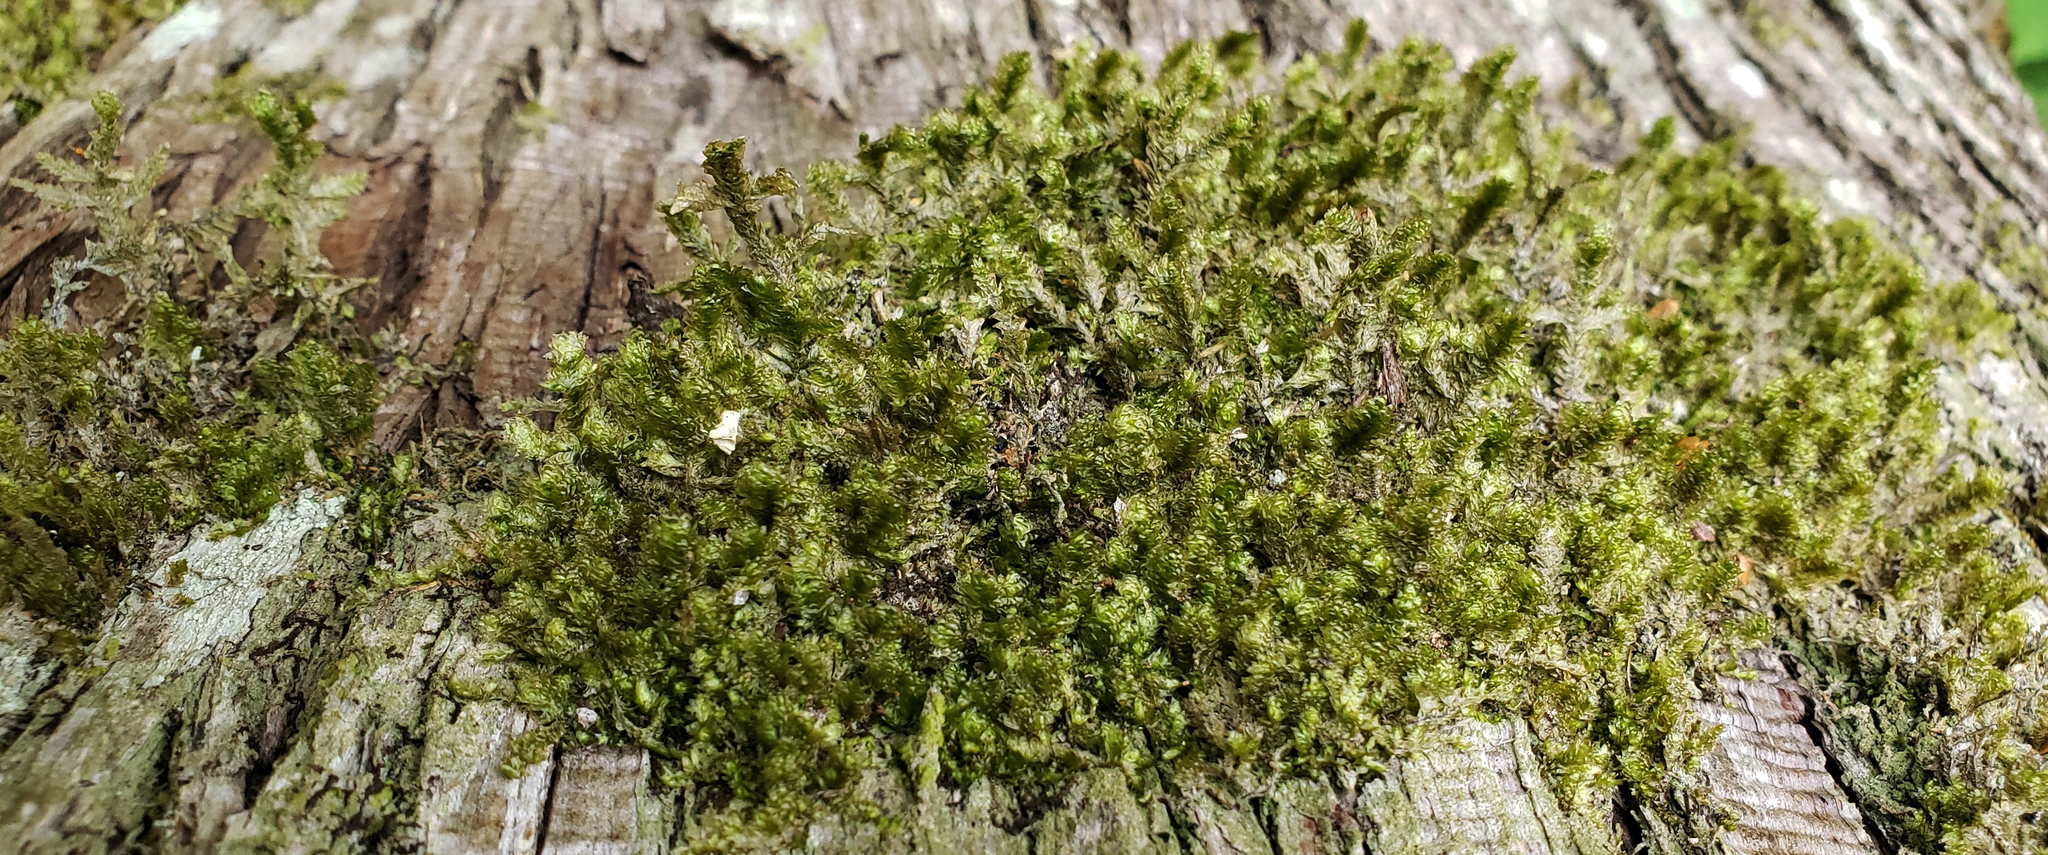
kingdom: Plantae
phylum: Bryophyta
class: Bryopsida
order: Hypnales
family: Neckeraceae
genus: Neckera
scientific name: Neckera pennata
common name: Feathery neckera
